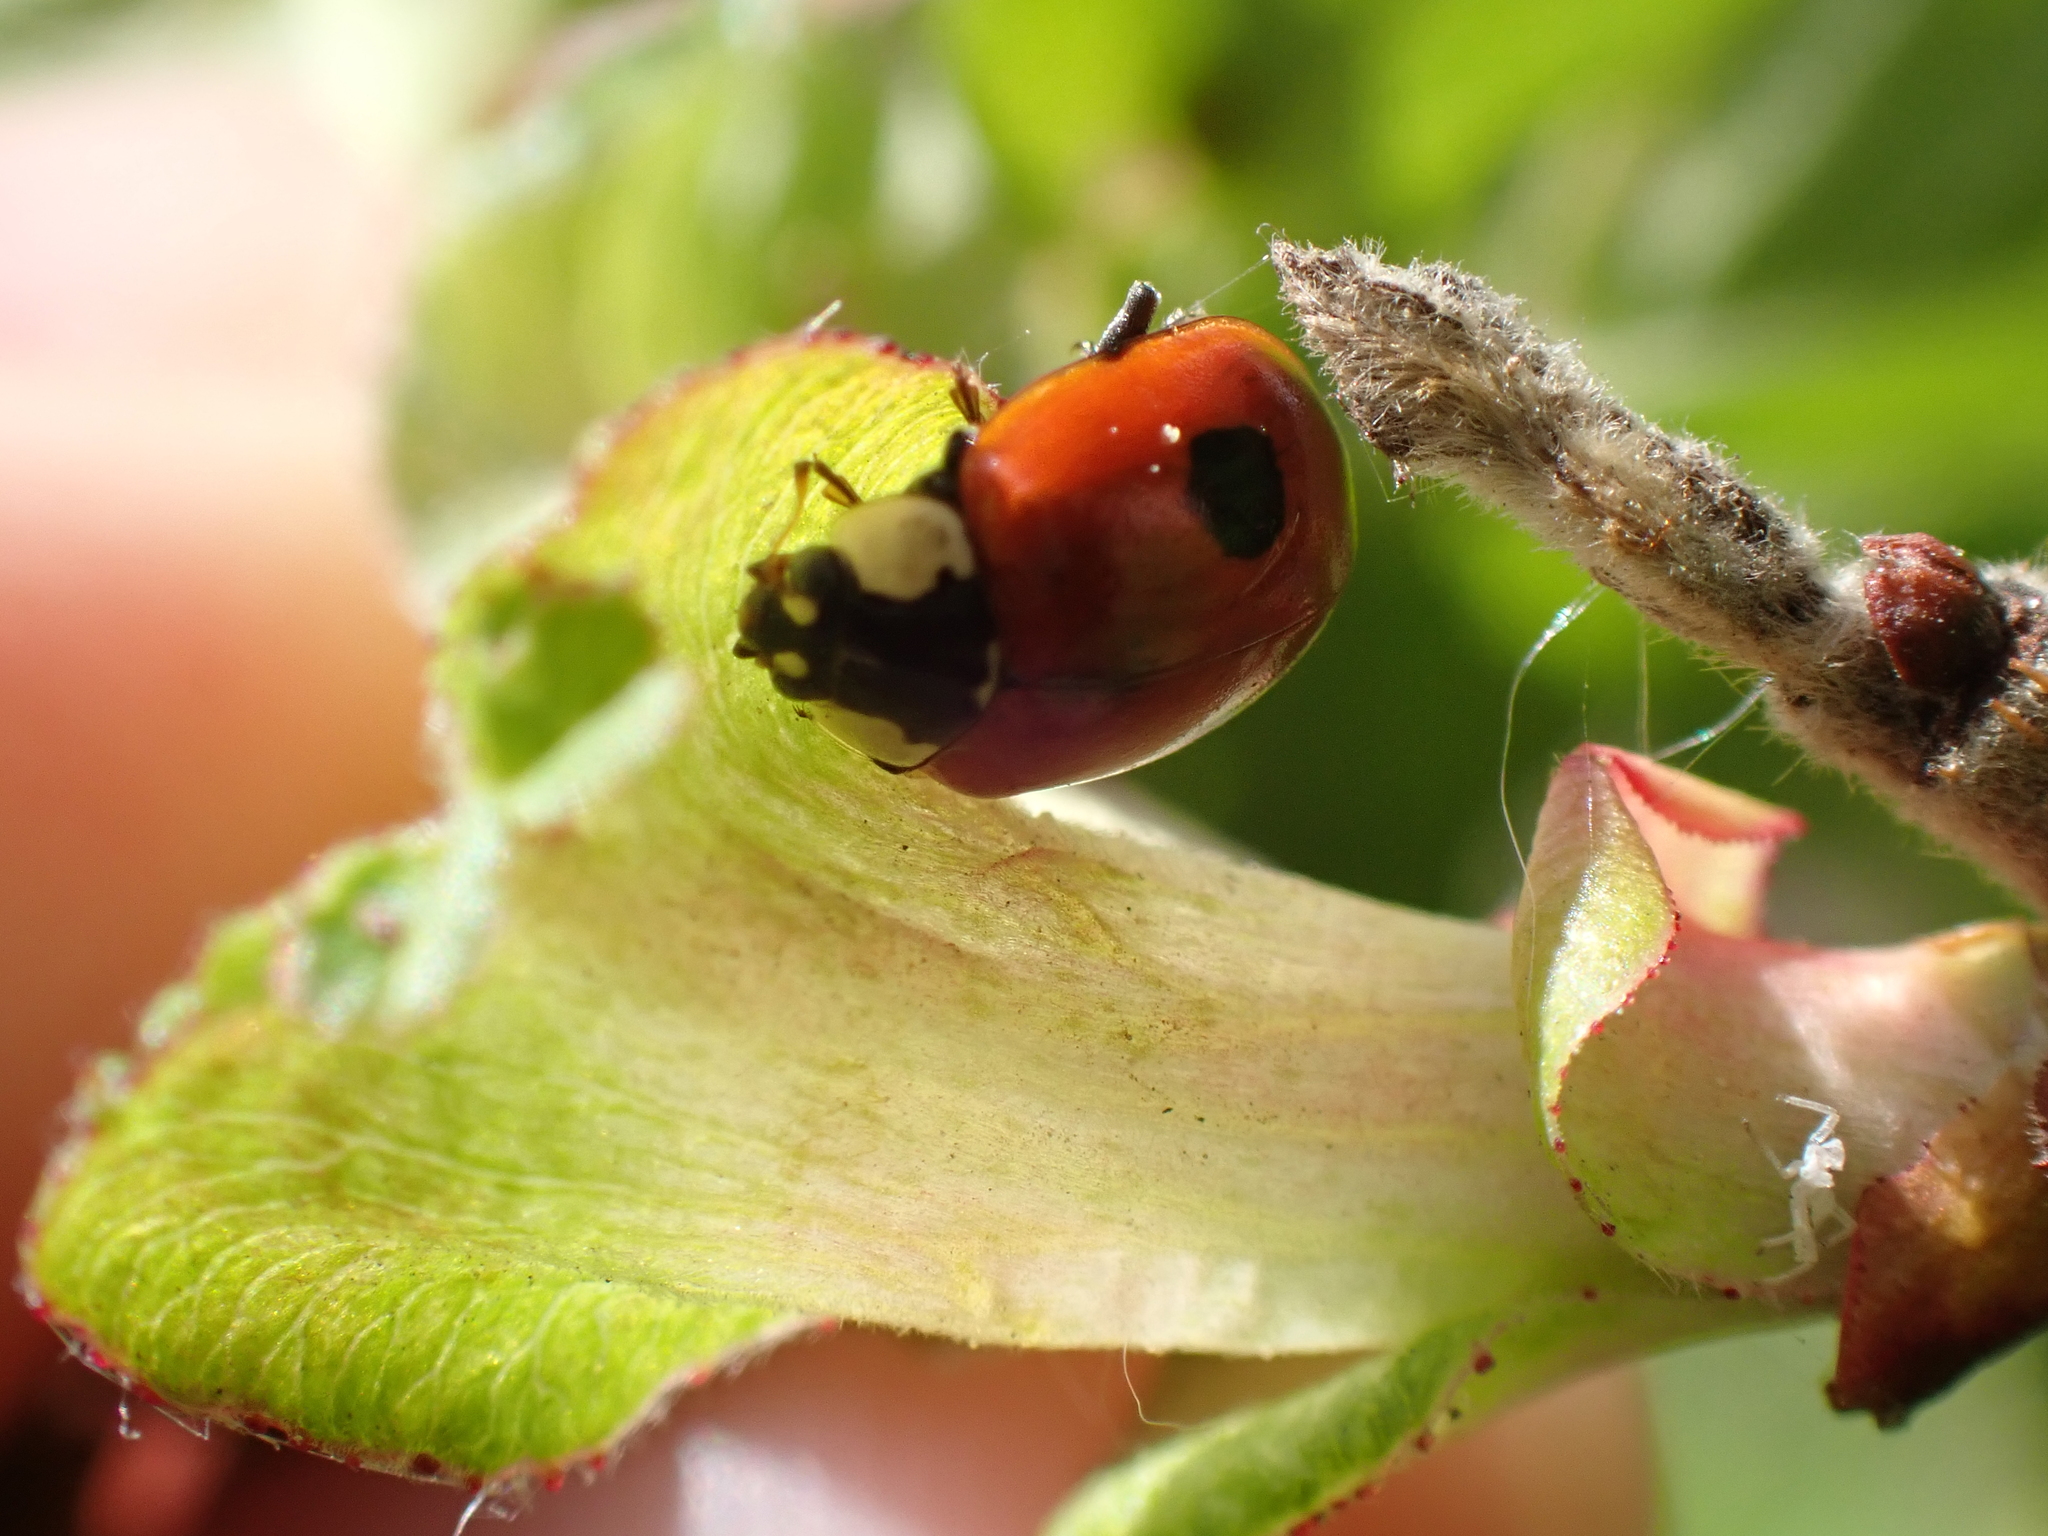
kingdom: Animalia
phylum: Arthropoda
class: Insecta
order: Coleoptera
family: Coccinellidae
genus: Adalia
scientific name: Adalia bipunctata
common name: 2-spot ladybird
